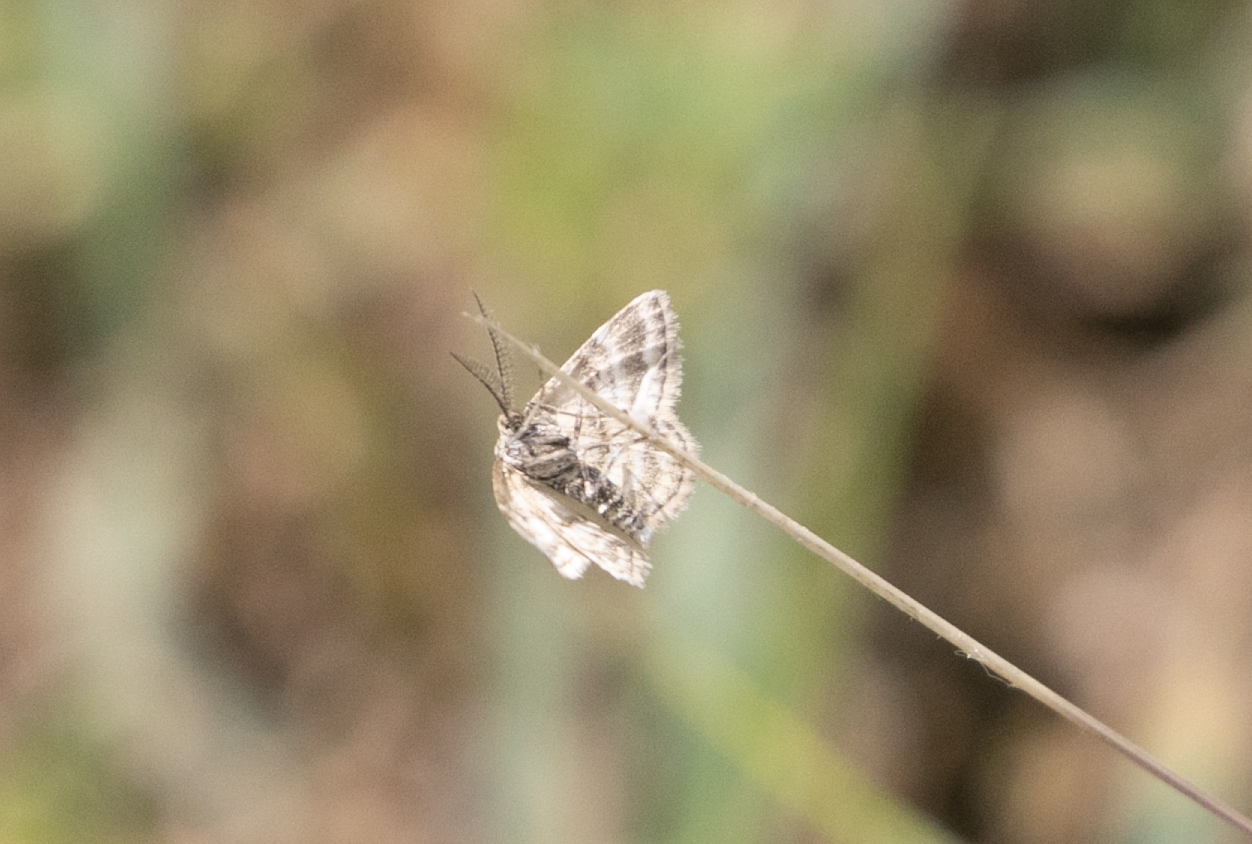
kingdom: Animalia
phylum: Arthropoda
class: Insecta
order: Lepidoptera
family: Geometridae
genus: Emmiltis
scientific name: Emmiltis pygmaearia
